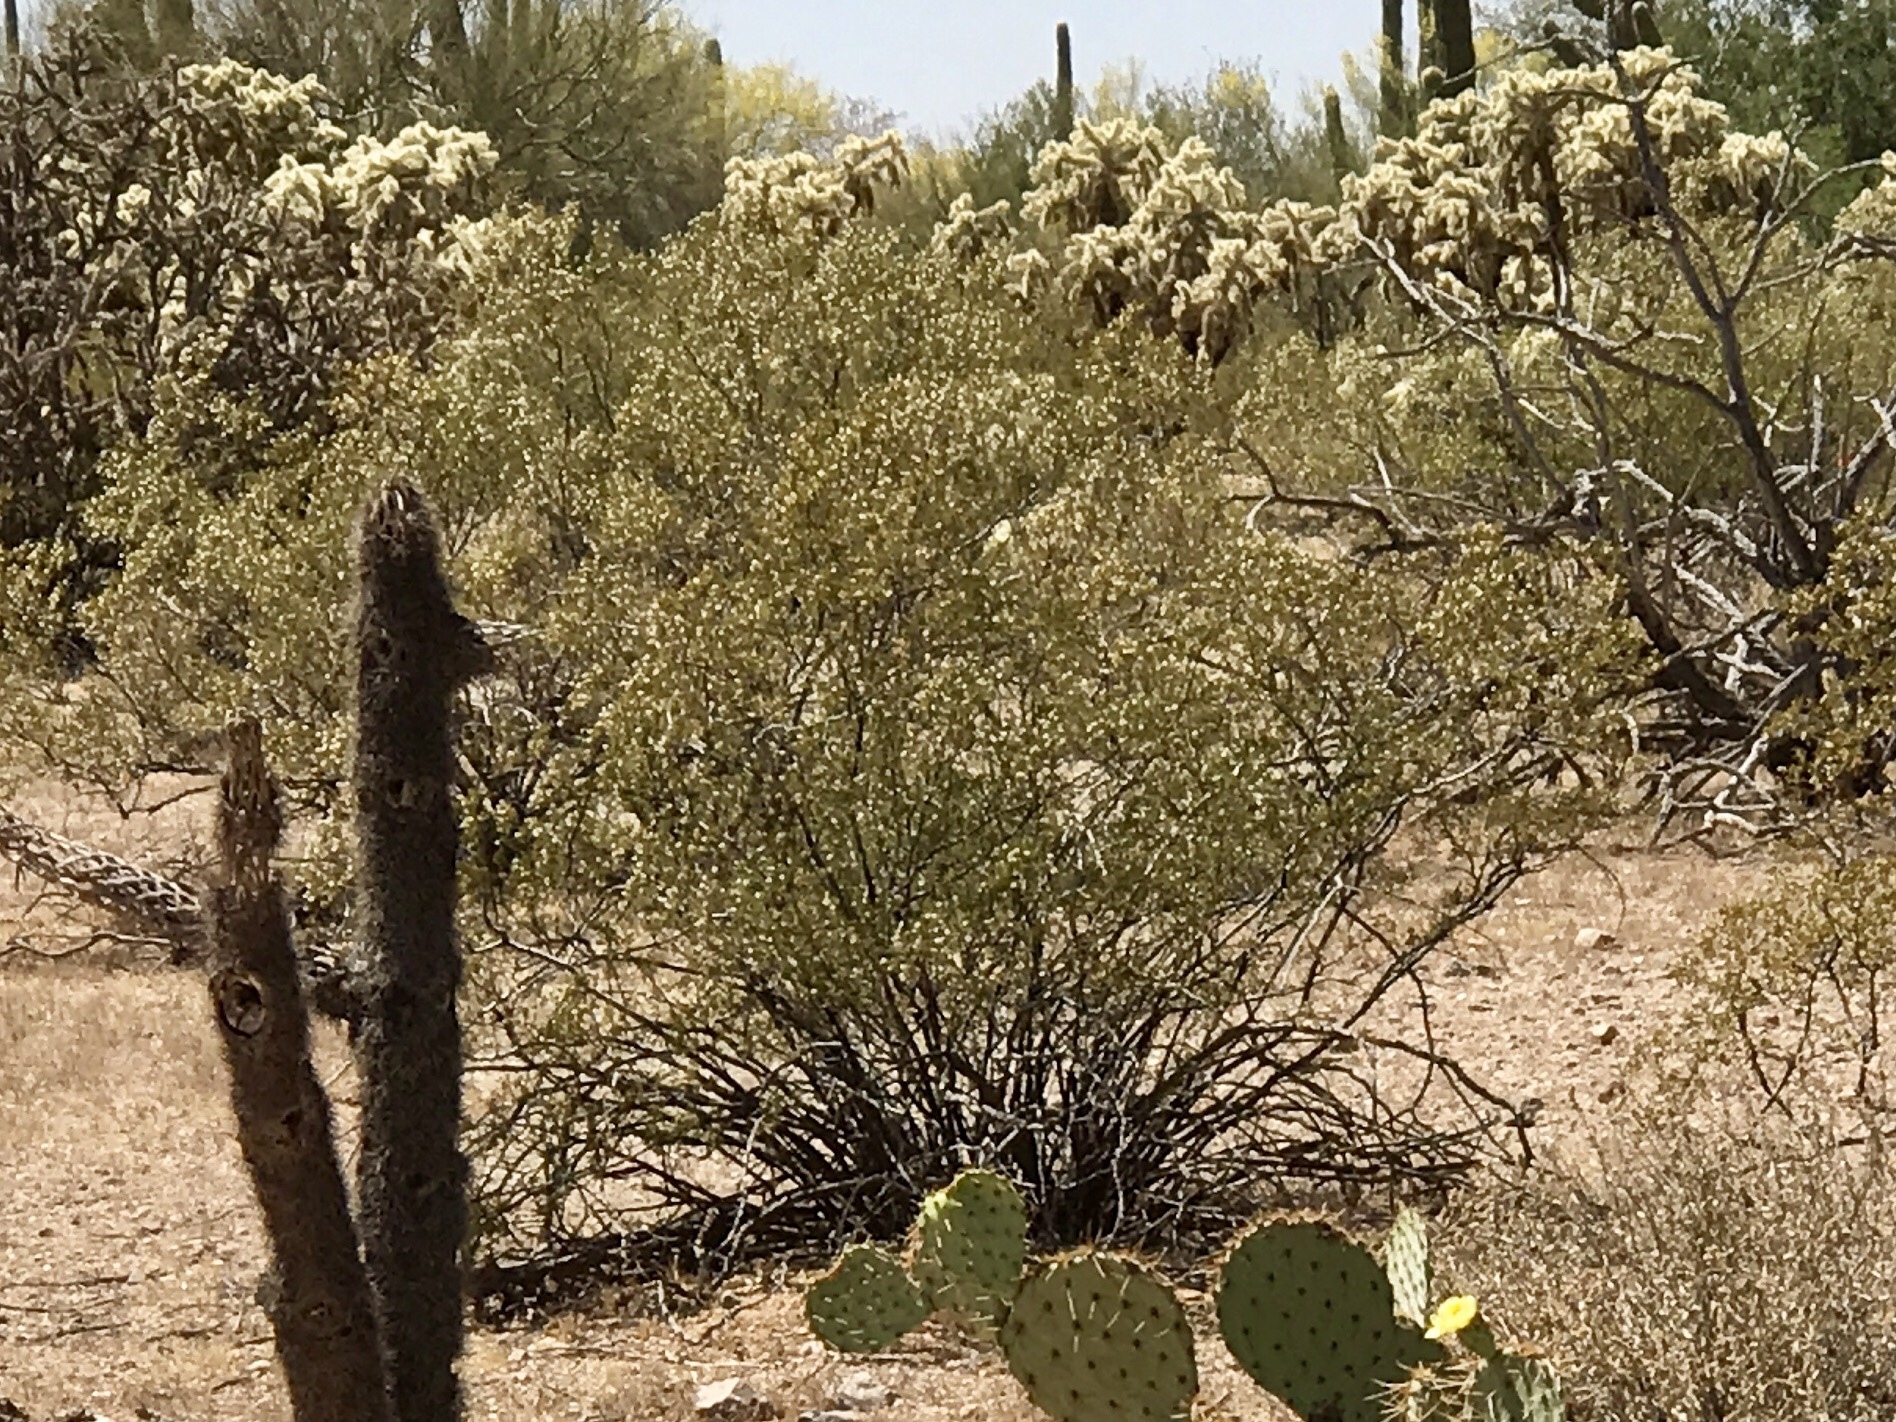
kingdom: Plantae
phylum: Tracheophyta
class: Magnoliopsida
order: Zygophyllales
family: Zygophyllaceae
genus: Larrea
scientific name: Larrea tridentata
